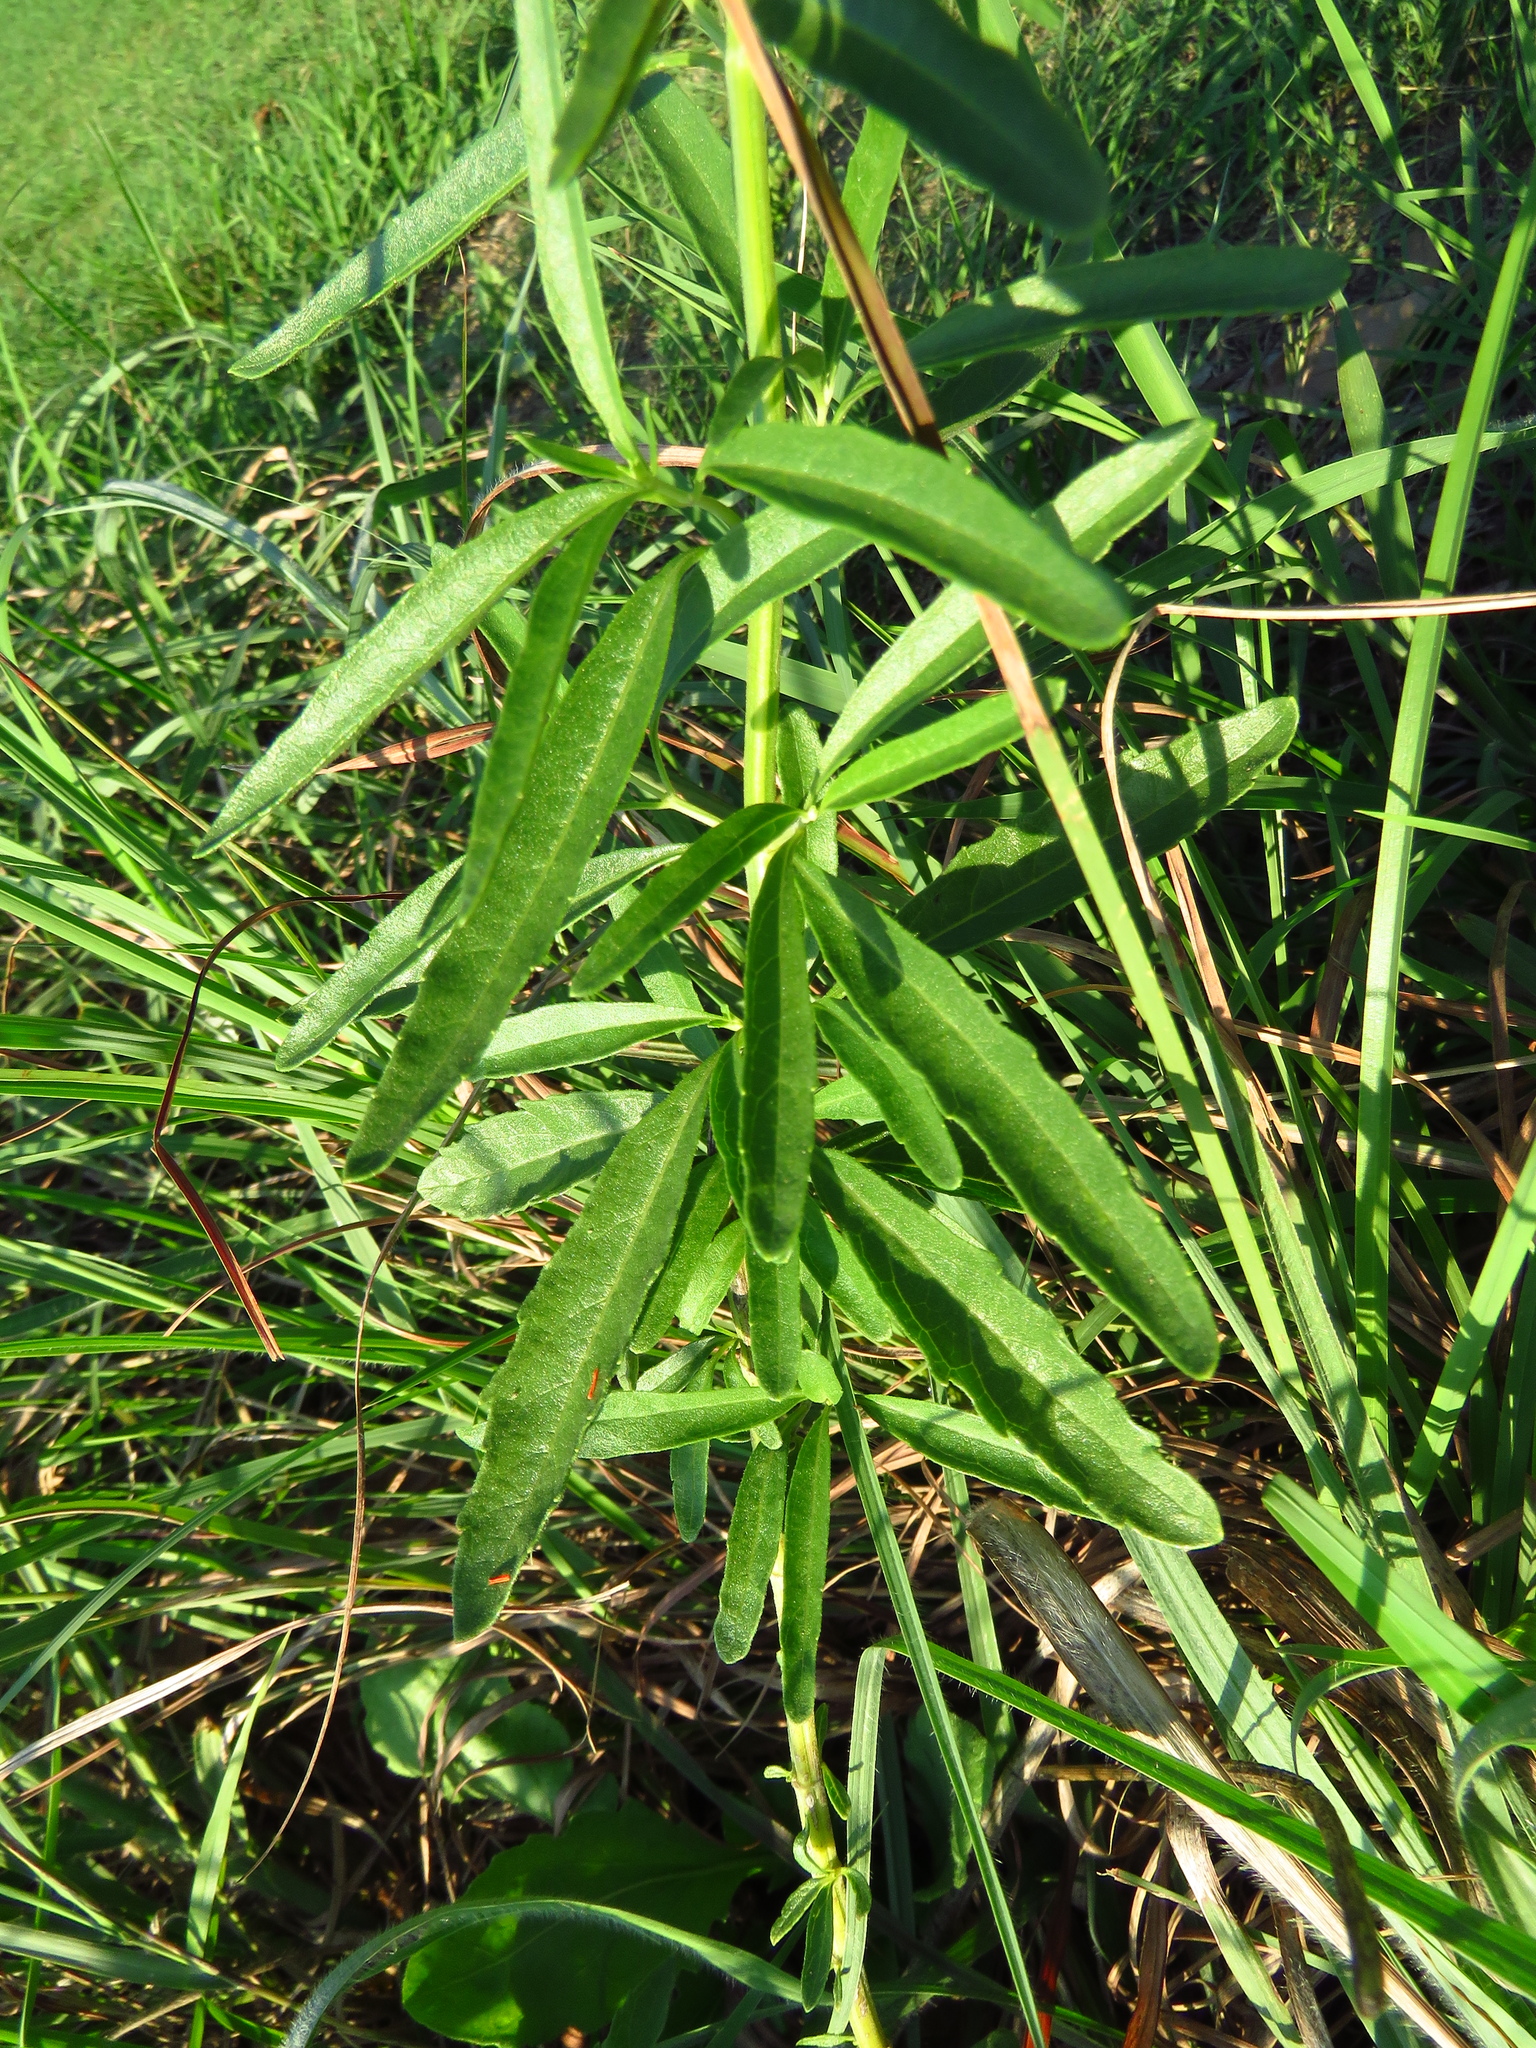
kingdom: Plantae
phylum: Tracheophyta
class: Magnoliopsida
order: Lamiales
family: Lamiaceae
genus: Salvia
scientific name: Salvia azurea
